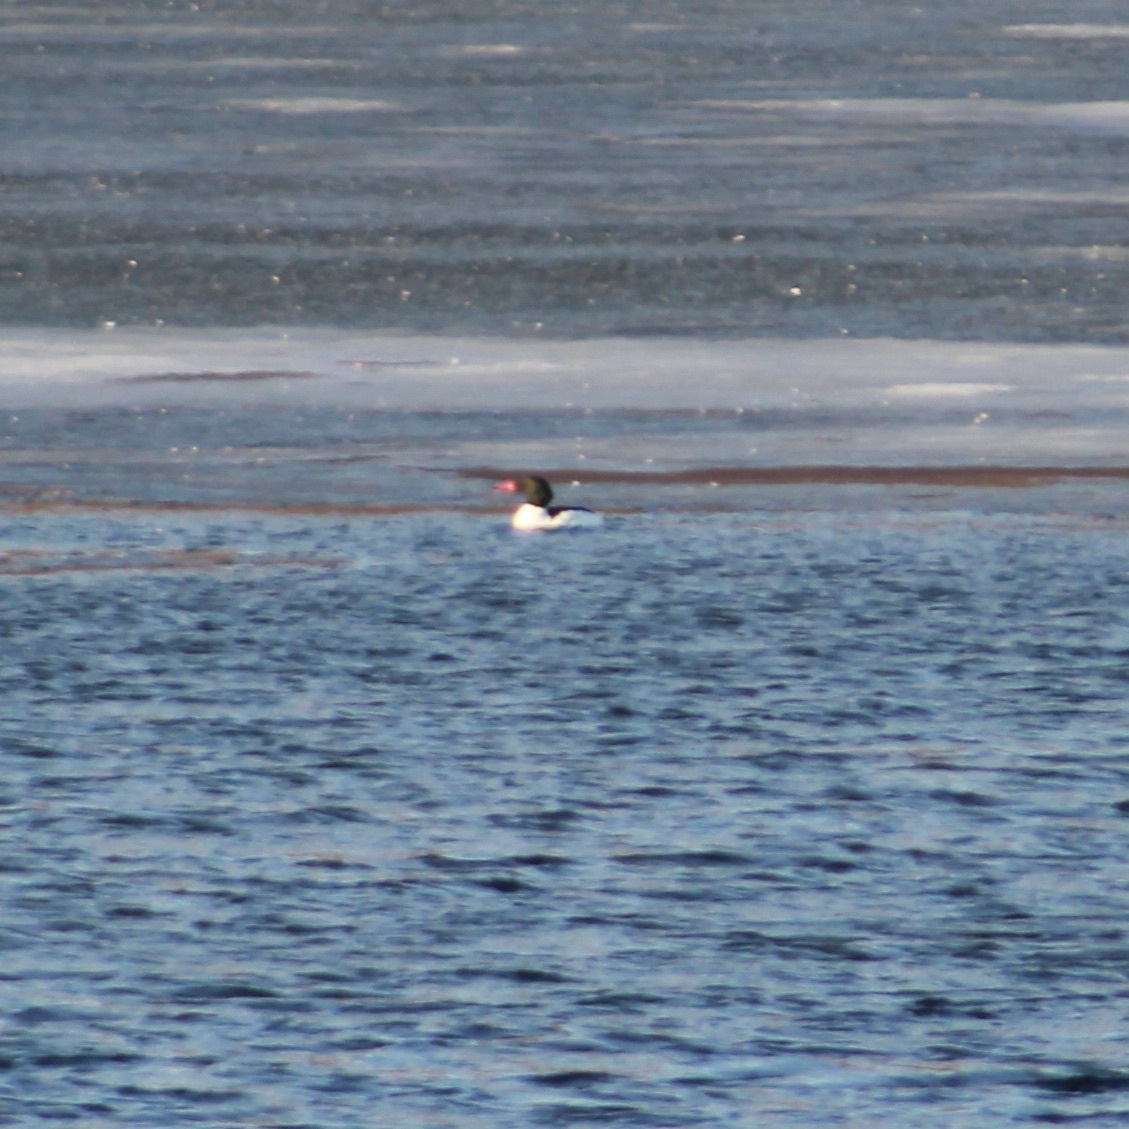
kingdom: Animalia
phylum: Chordata
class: Aves
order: Anseriformes
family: Anatidae
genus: Mergus
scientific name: Mergus merganser
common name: Common merganser
